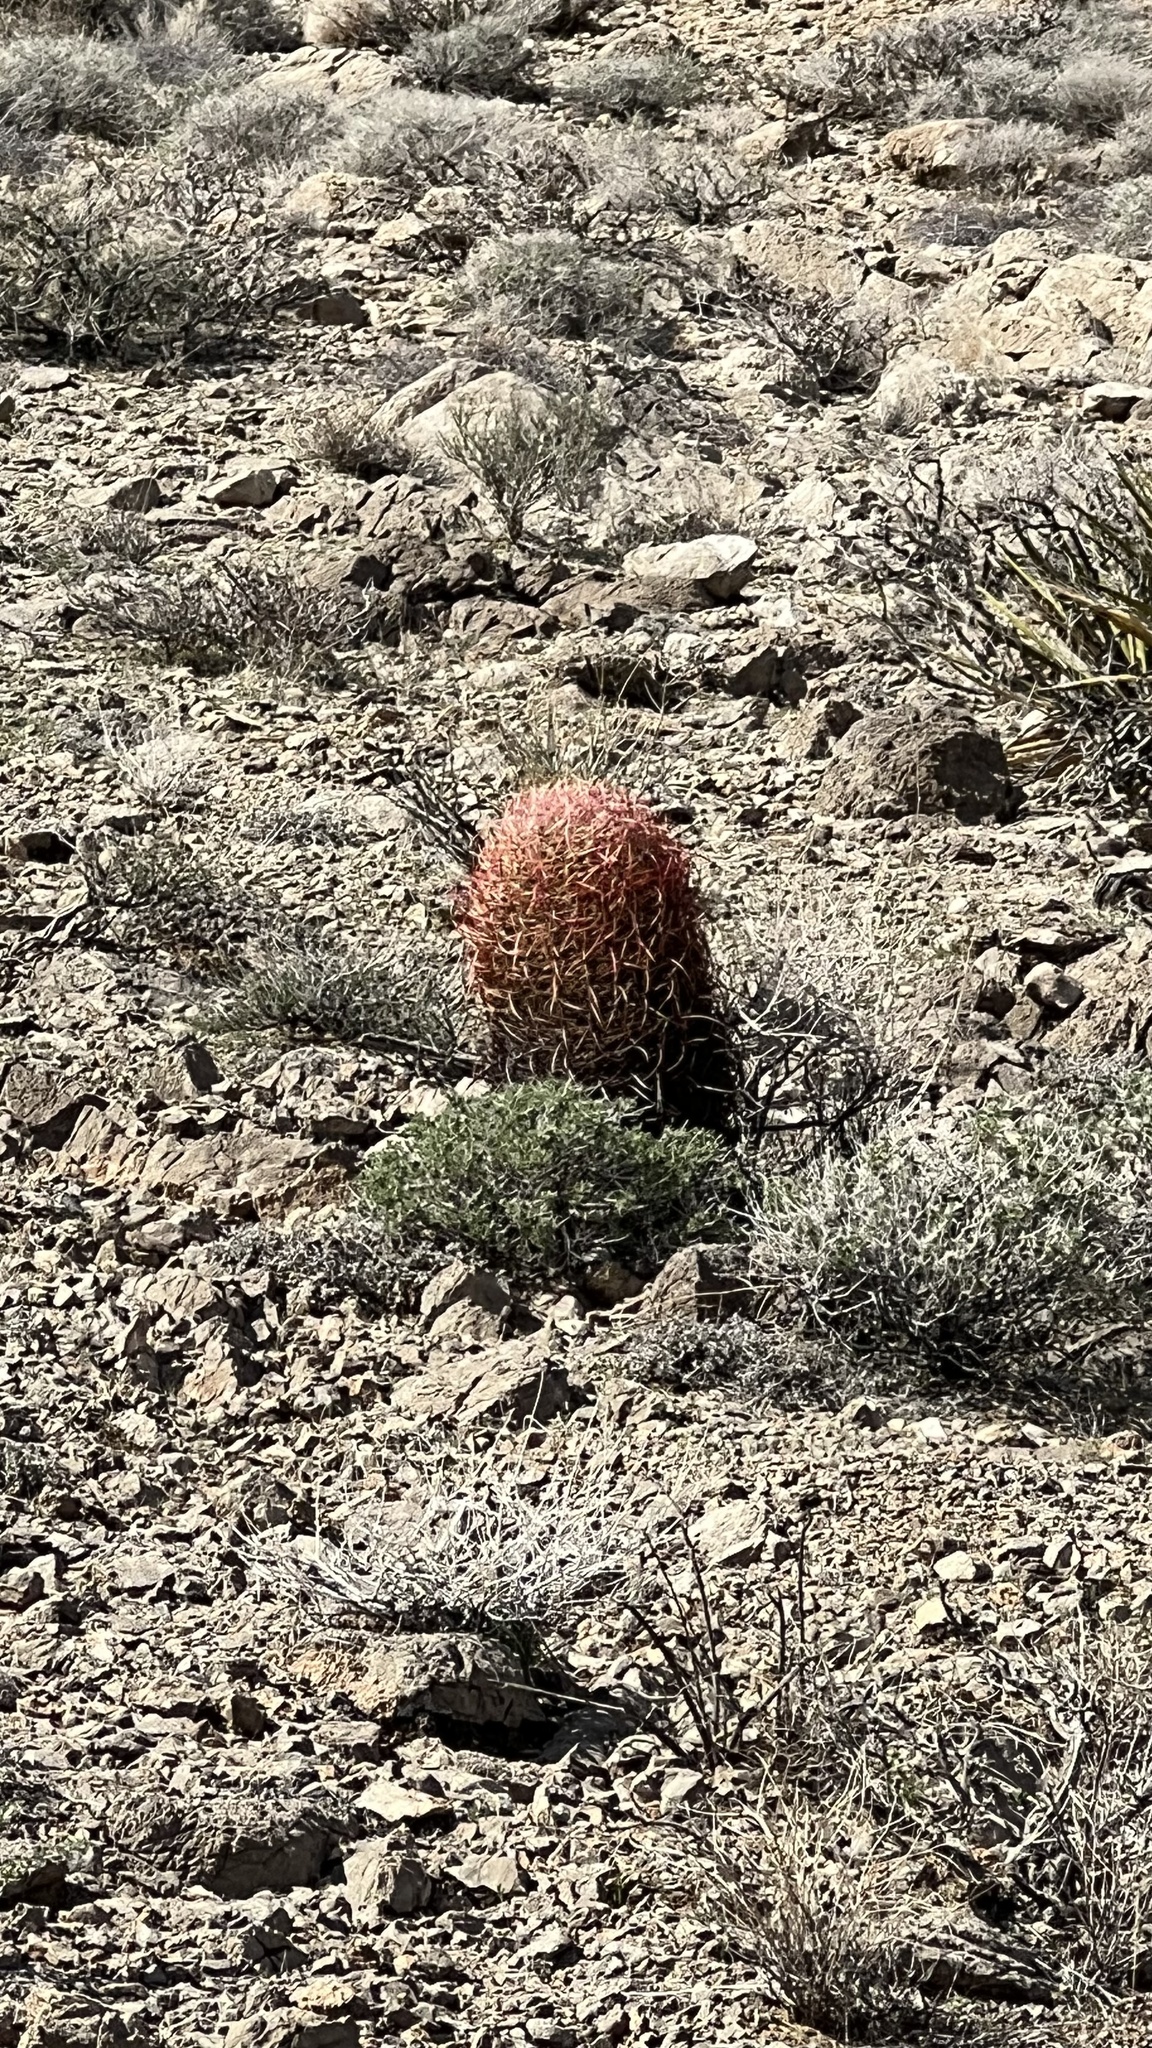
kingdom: Plantae
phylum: Tracheophyta
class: Magnoliopsida
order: Caryophyllales
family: Cactaceae
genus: Ferocactus
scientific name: Ferocactus cylindraceus
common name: California barrel cactus
